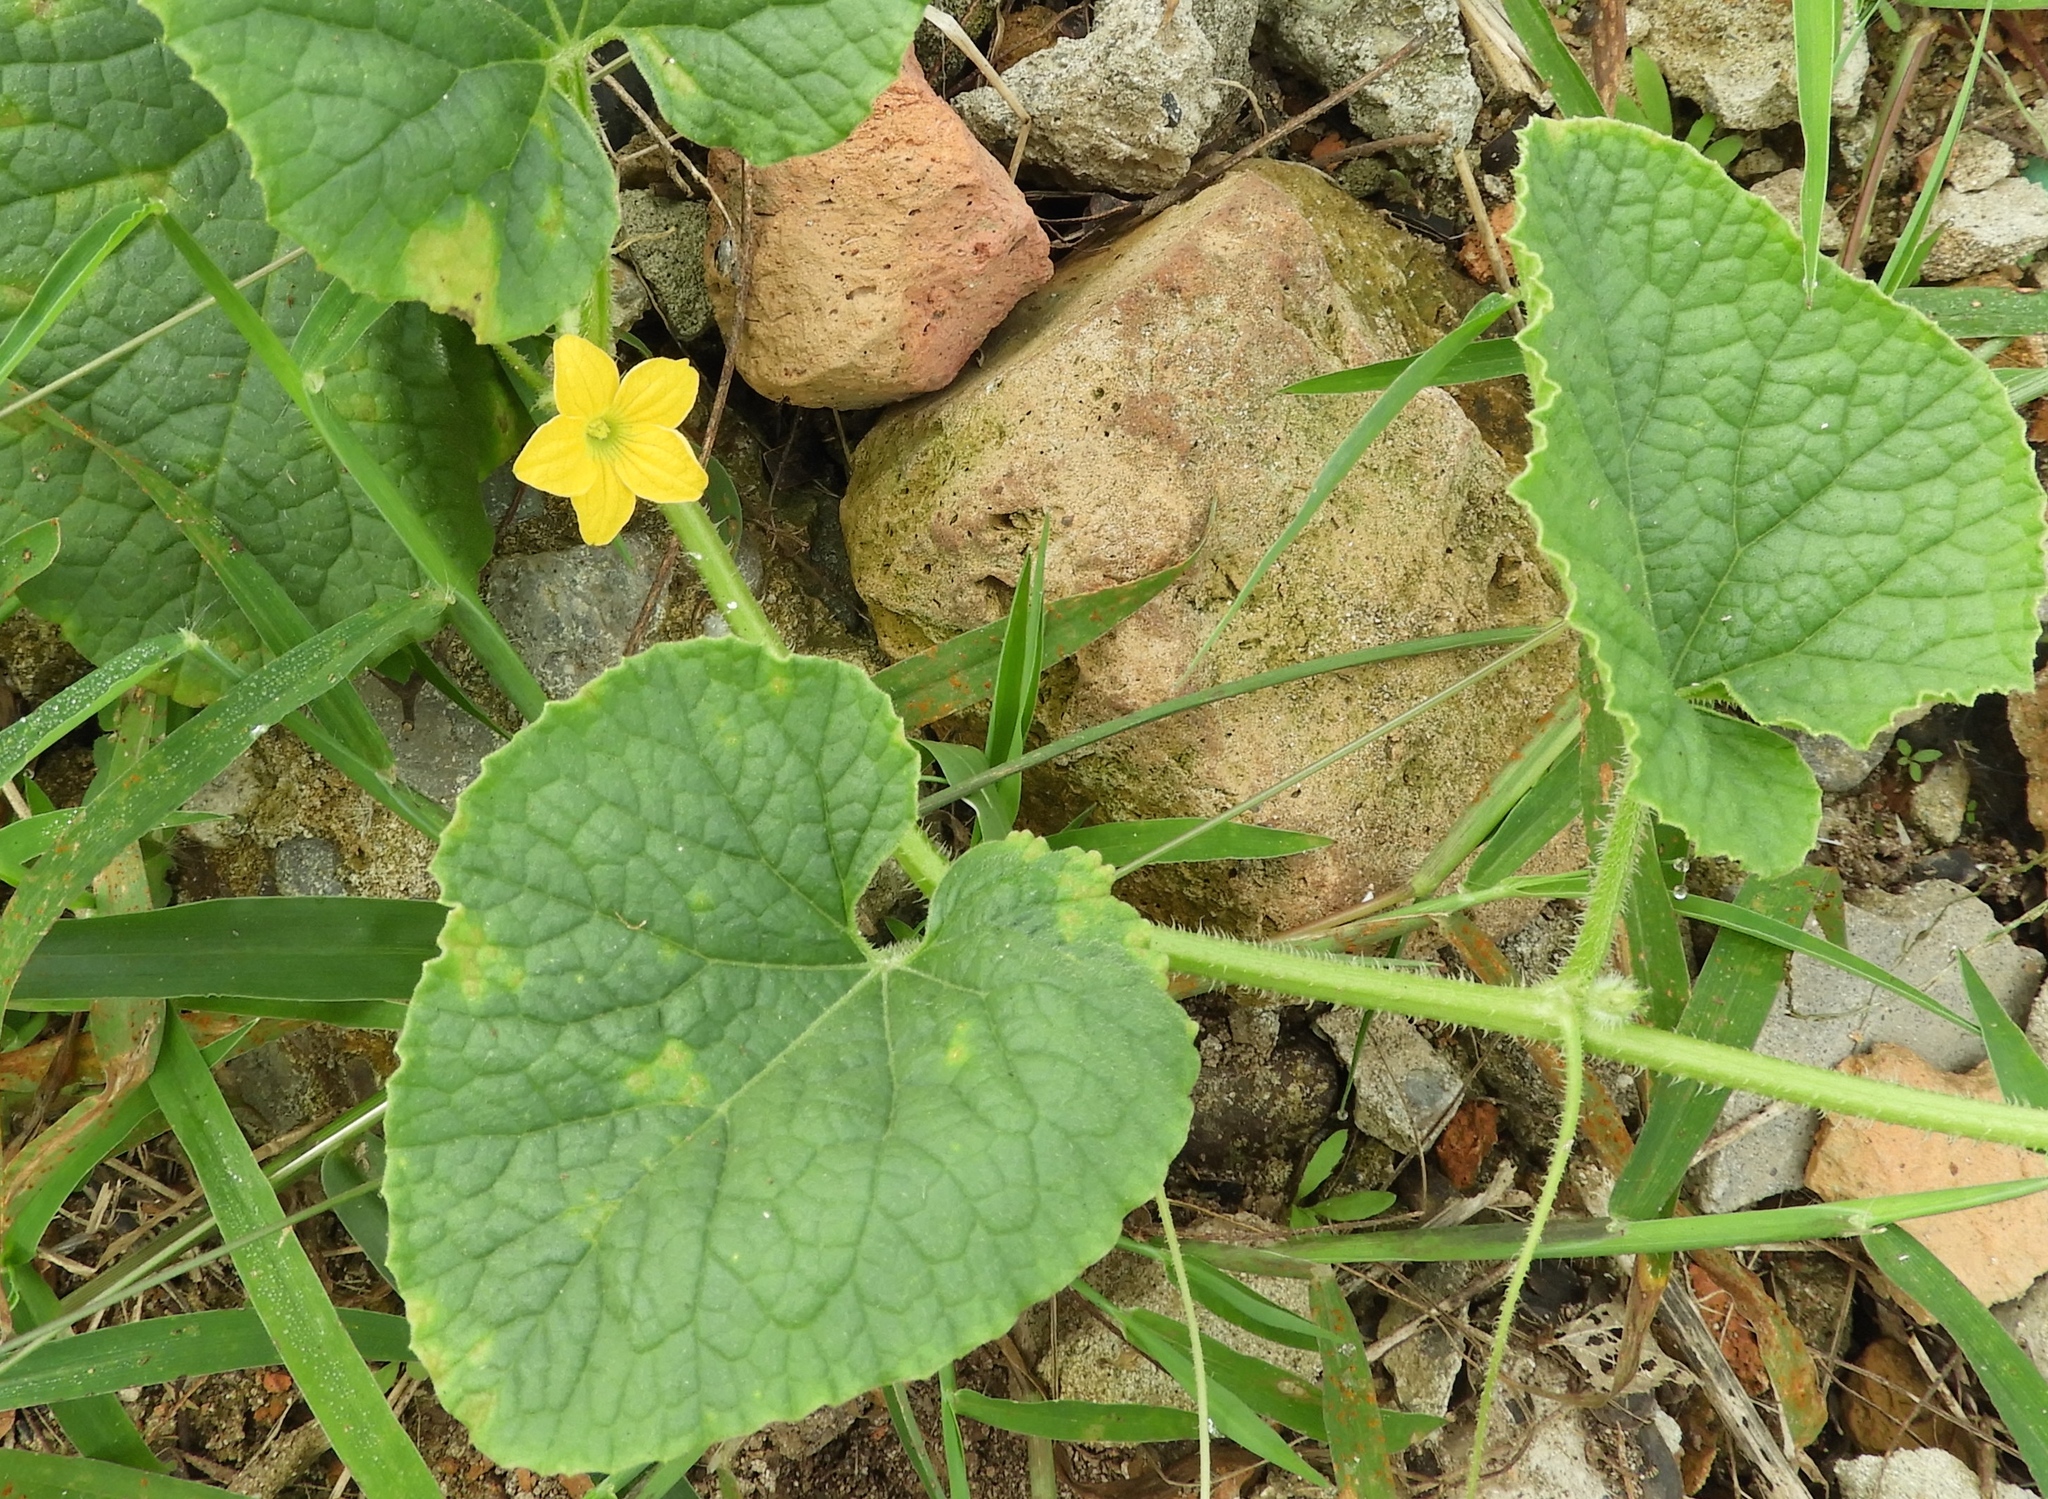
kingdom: Plantae
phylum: Tracheophyta
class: Magnoliopsida
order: Cucurbitales
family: Cucurbitaceae
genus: Cucumis
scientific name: Cucumis dipsaceus
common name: Hedgehog gourd
